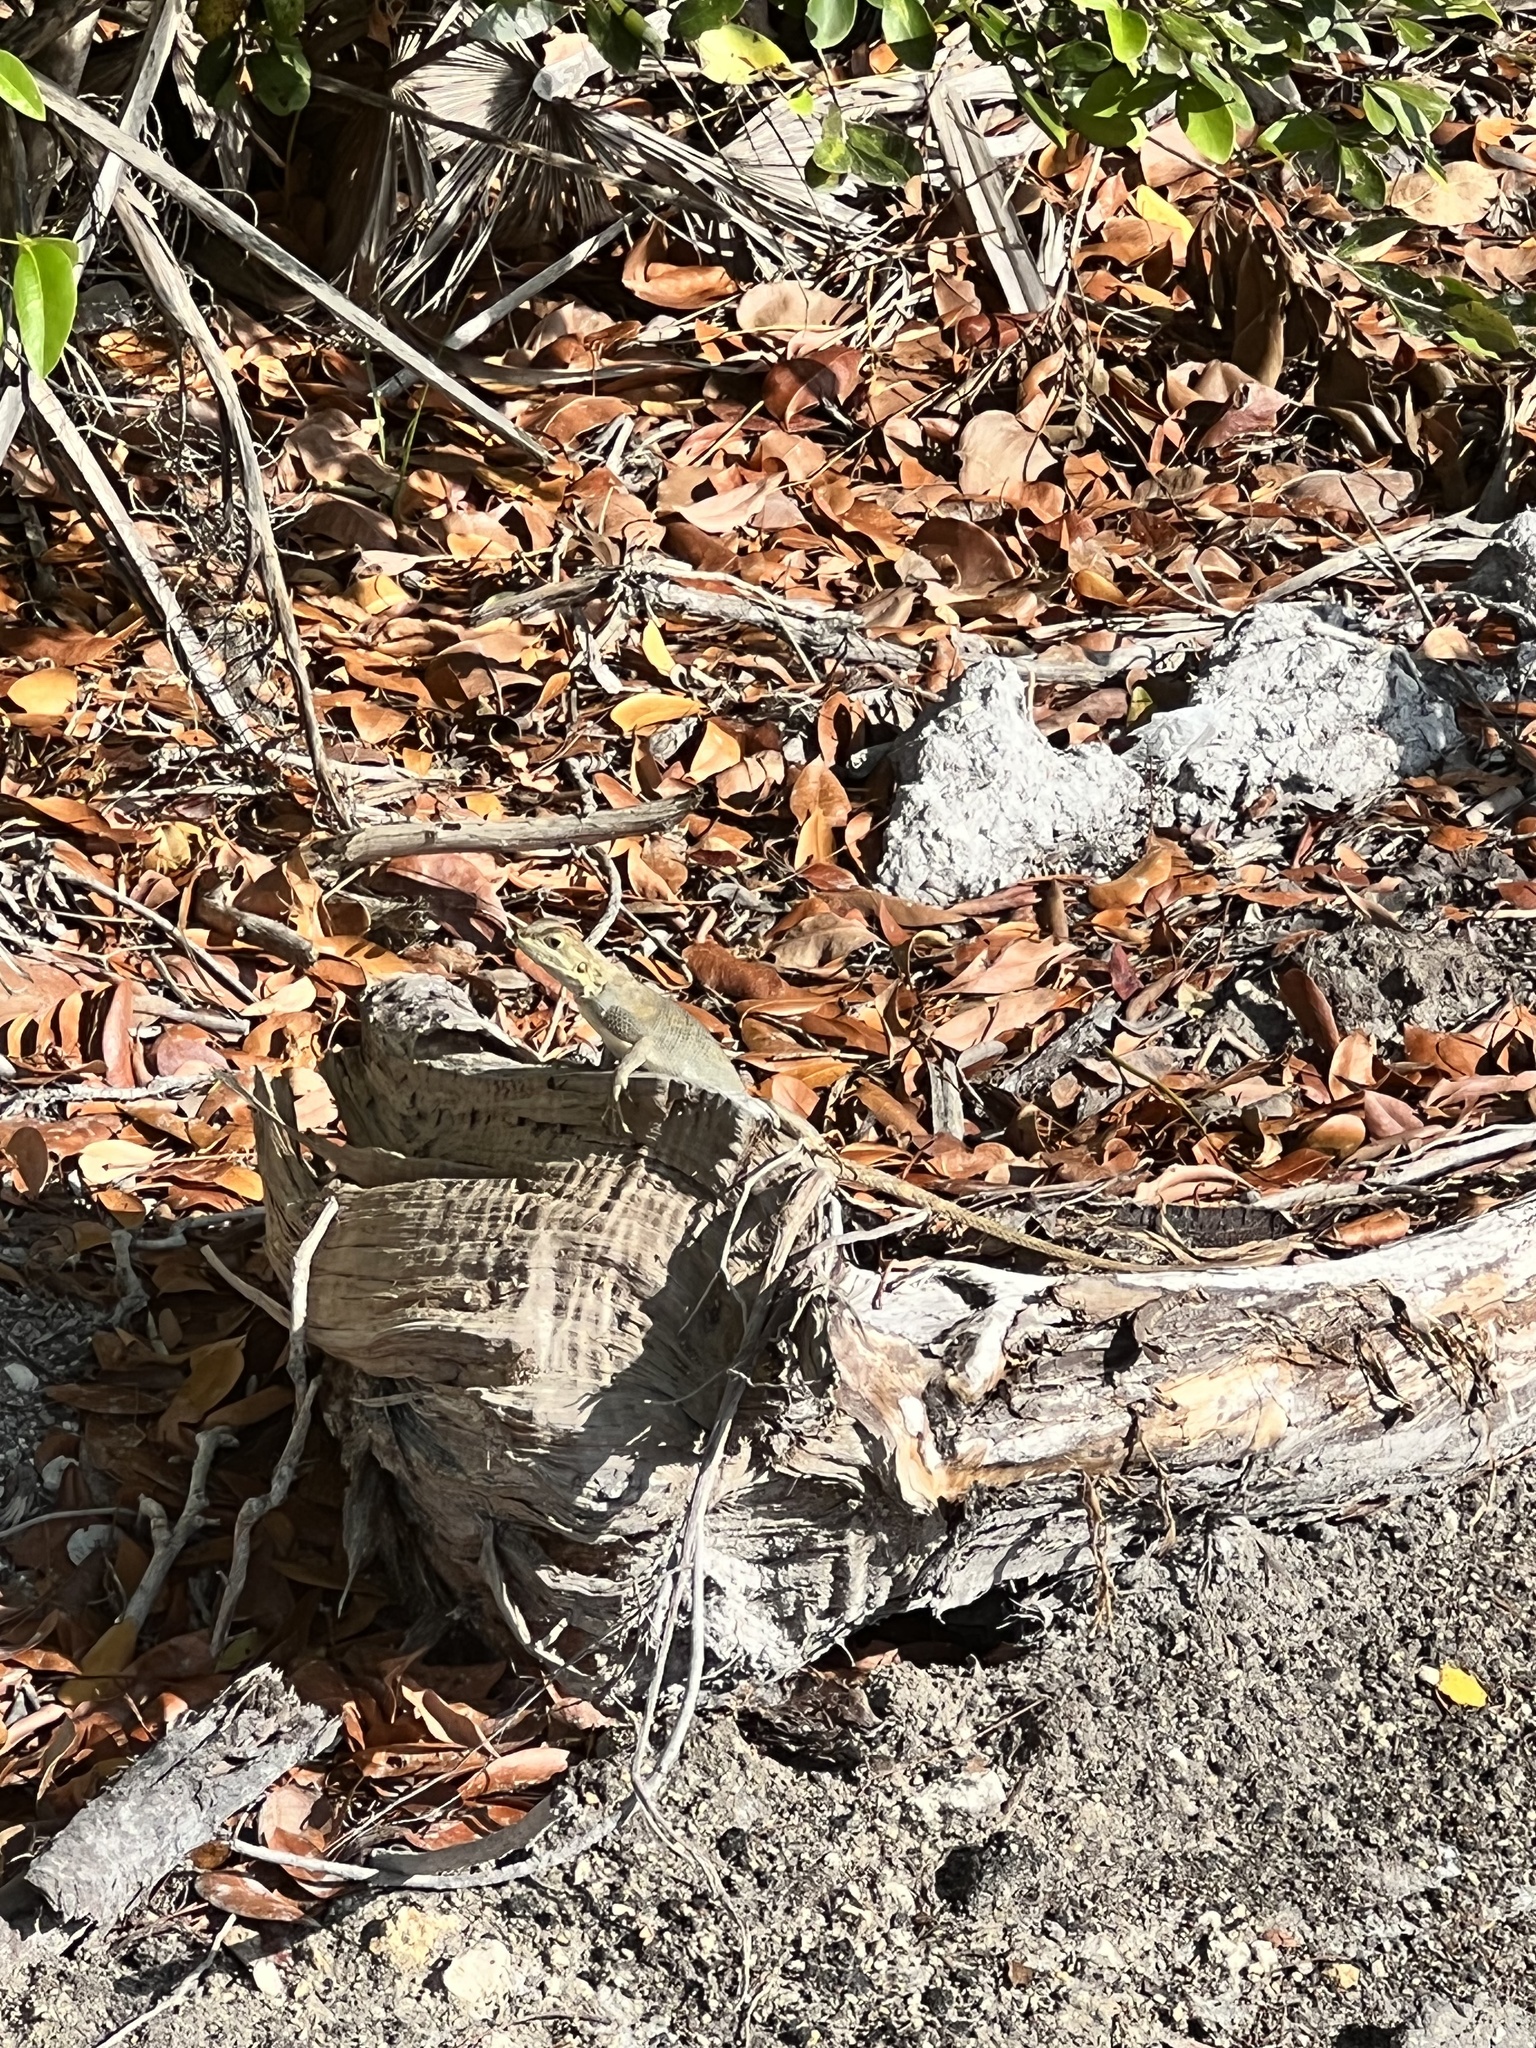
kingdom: Animalia
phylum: Chordata
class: Squamata
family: Agamidae
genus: Agama
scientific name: Agama picticauda
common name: Red-headed agama
